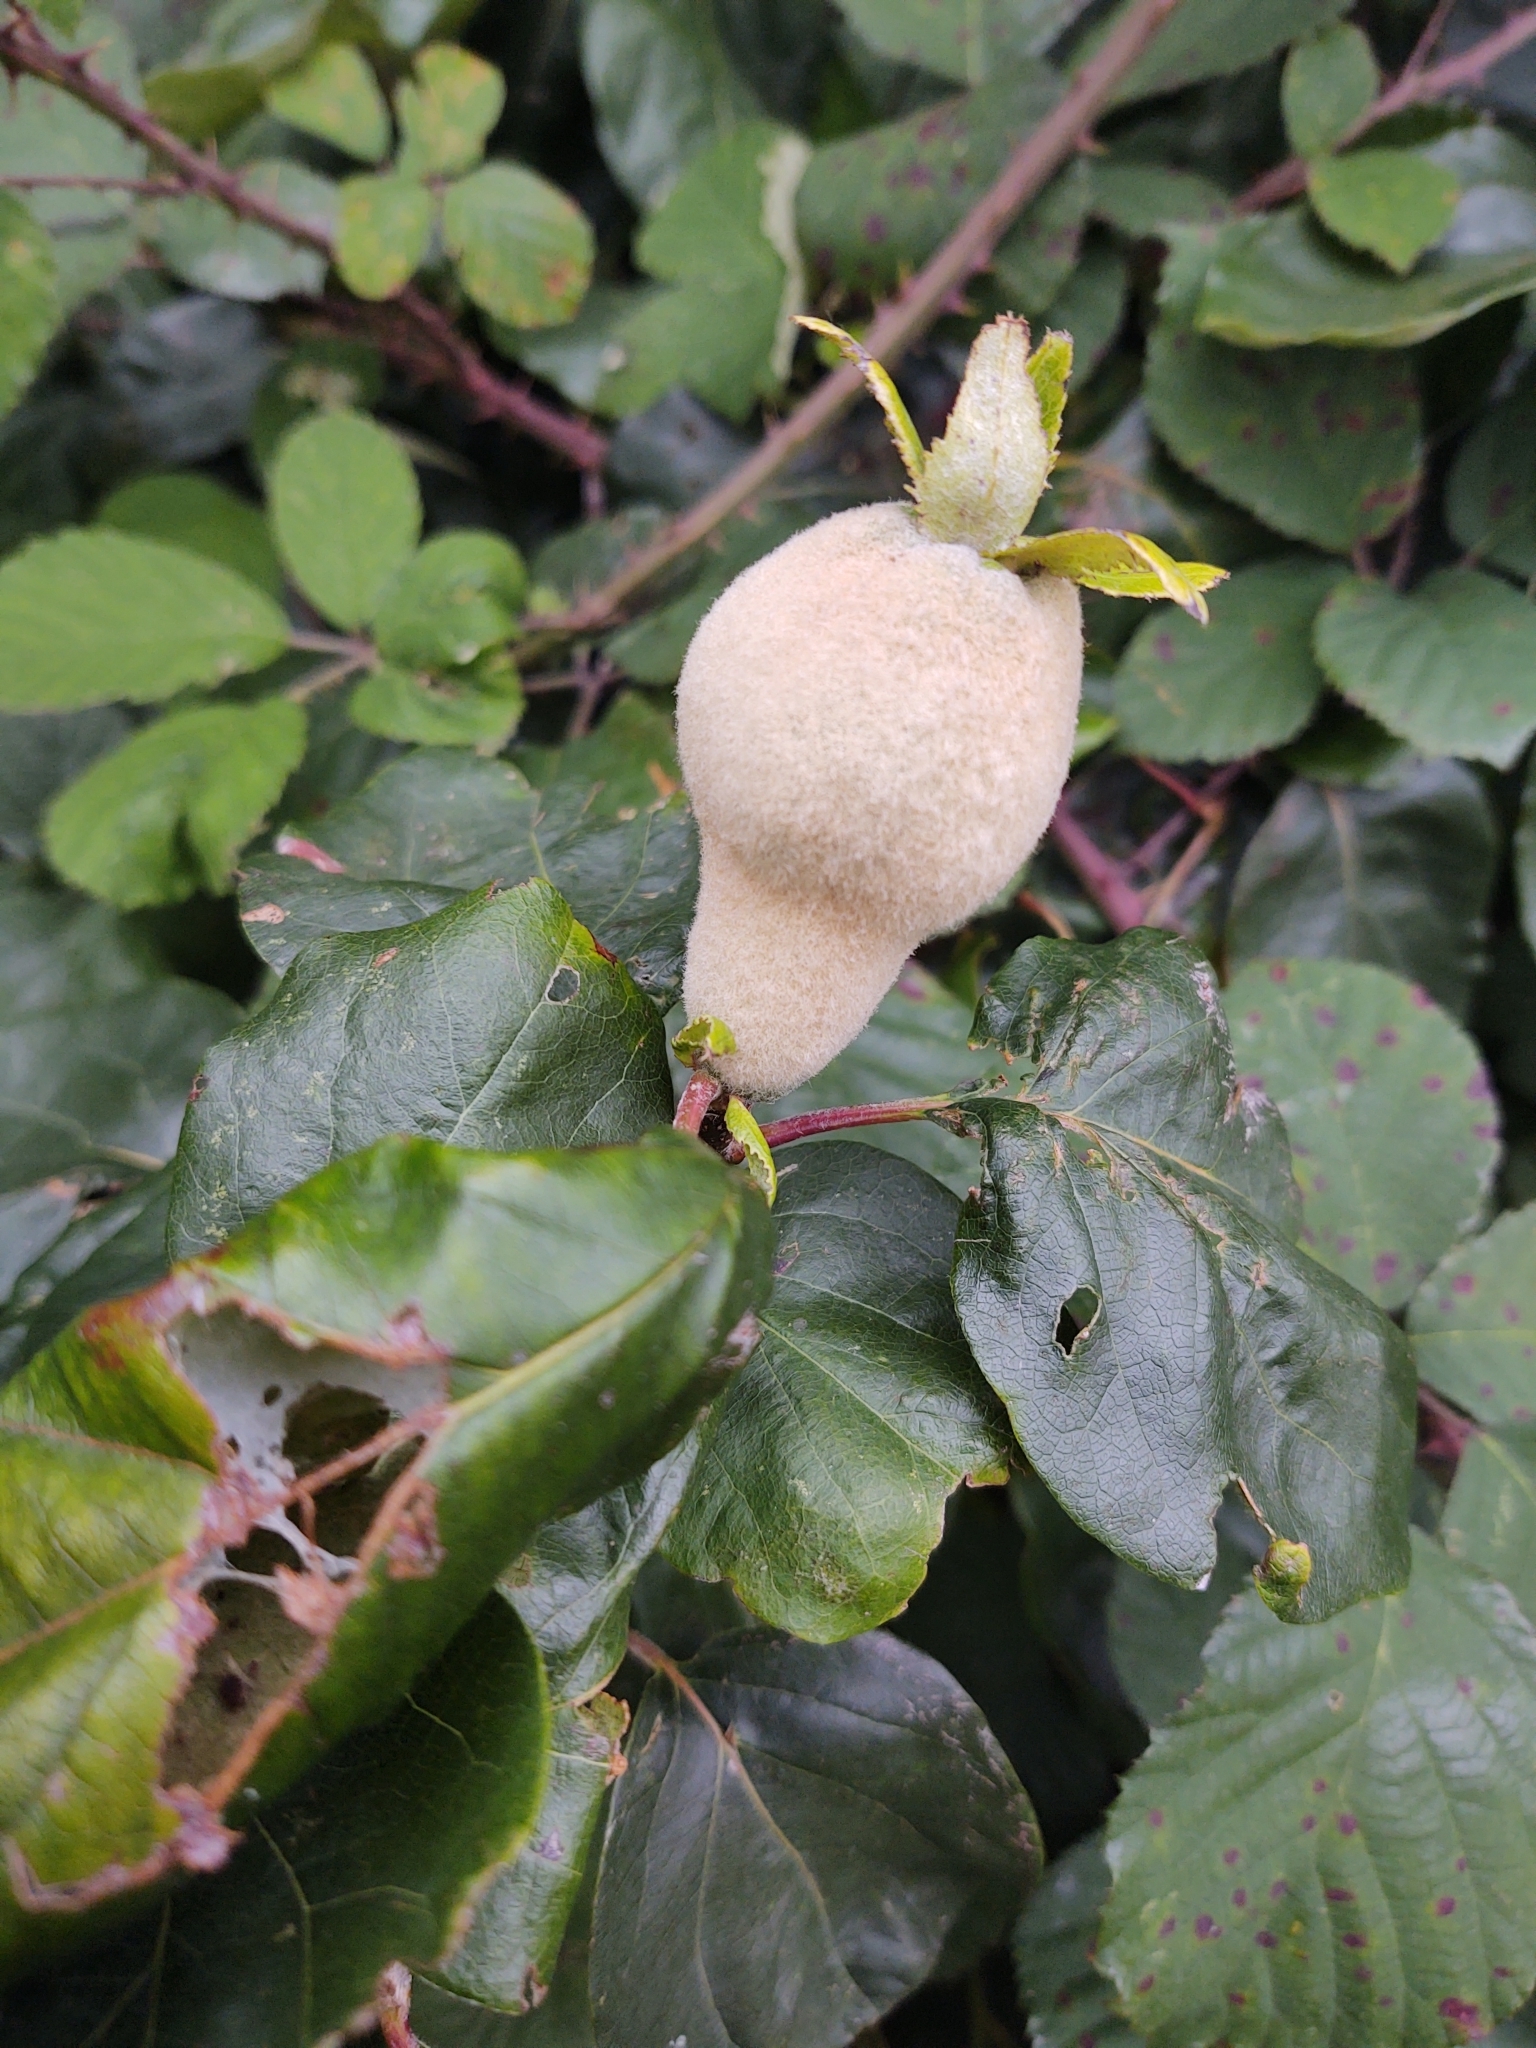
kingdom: Plantae
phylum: Tracheophyta
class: Magnoliopsida
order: Rosales
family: Rosaceae
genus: Cydonia
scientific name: Cydonia oblonga
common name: Quince
